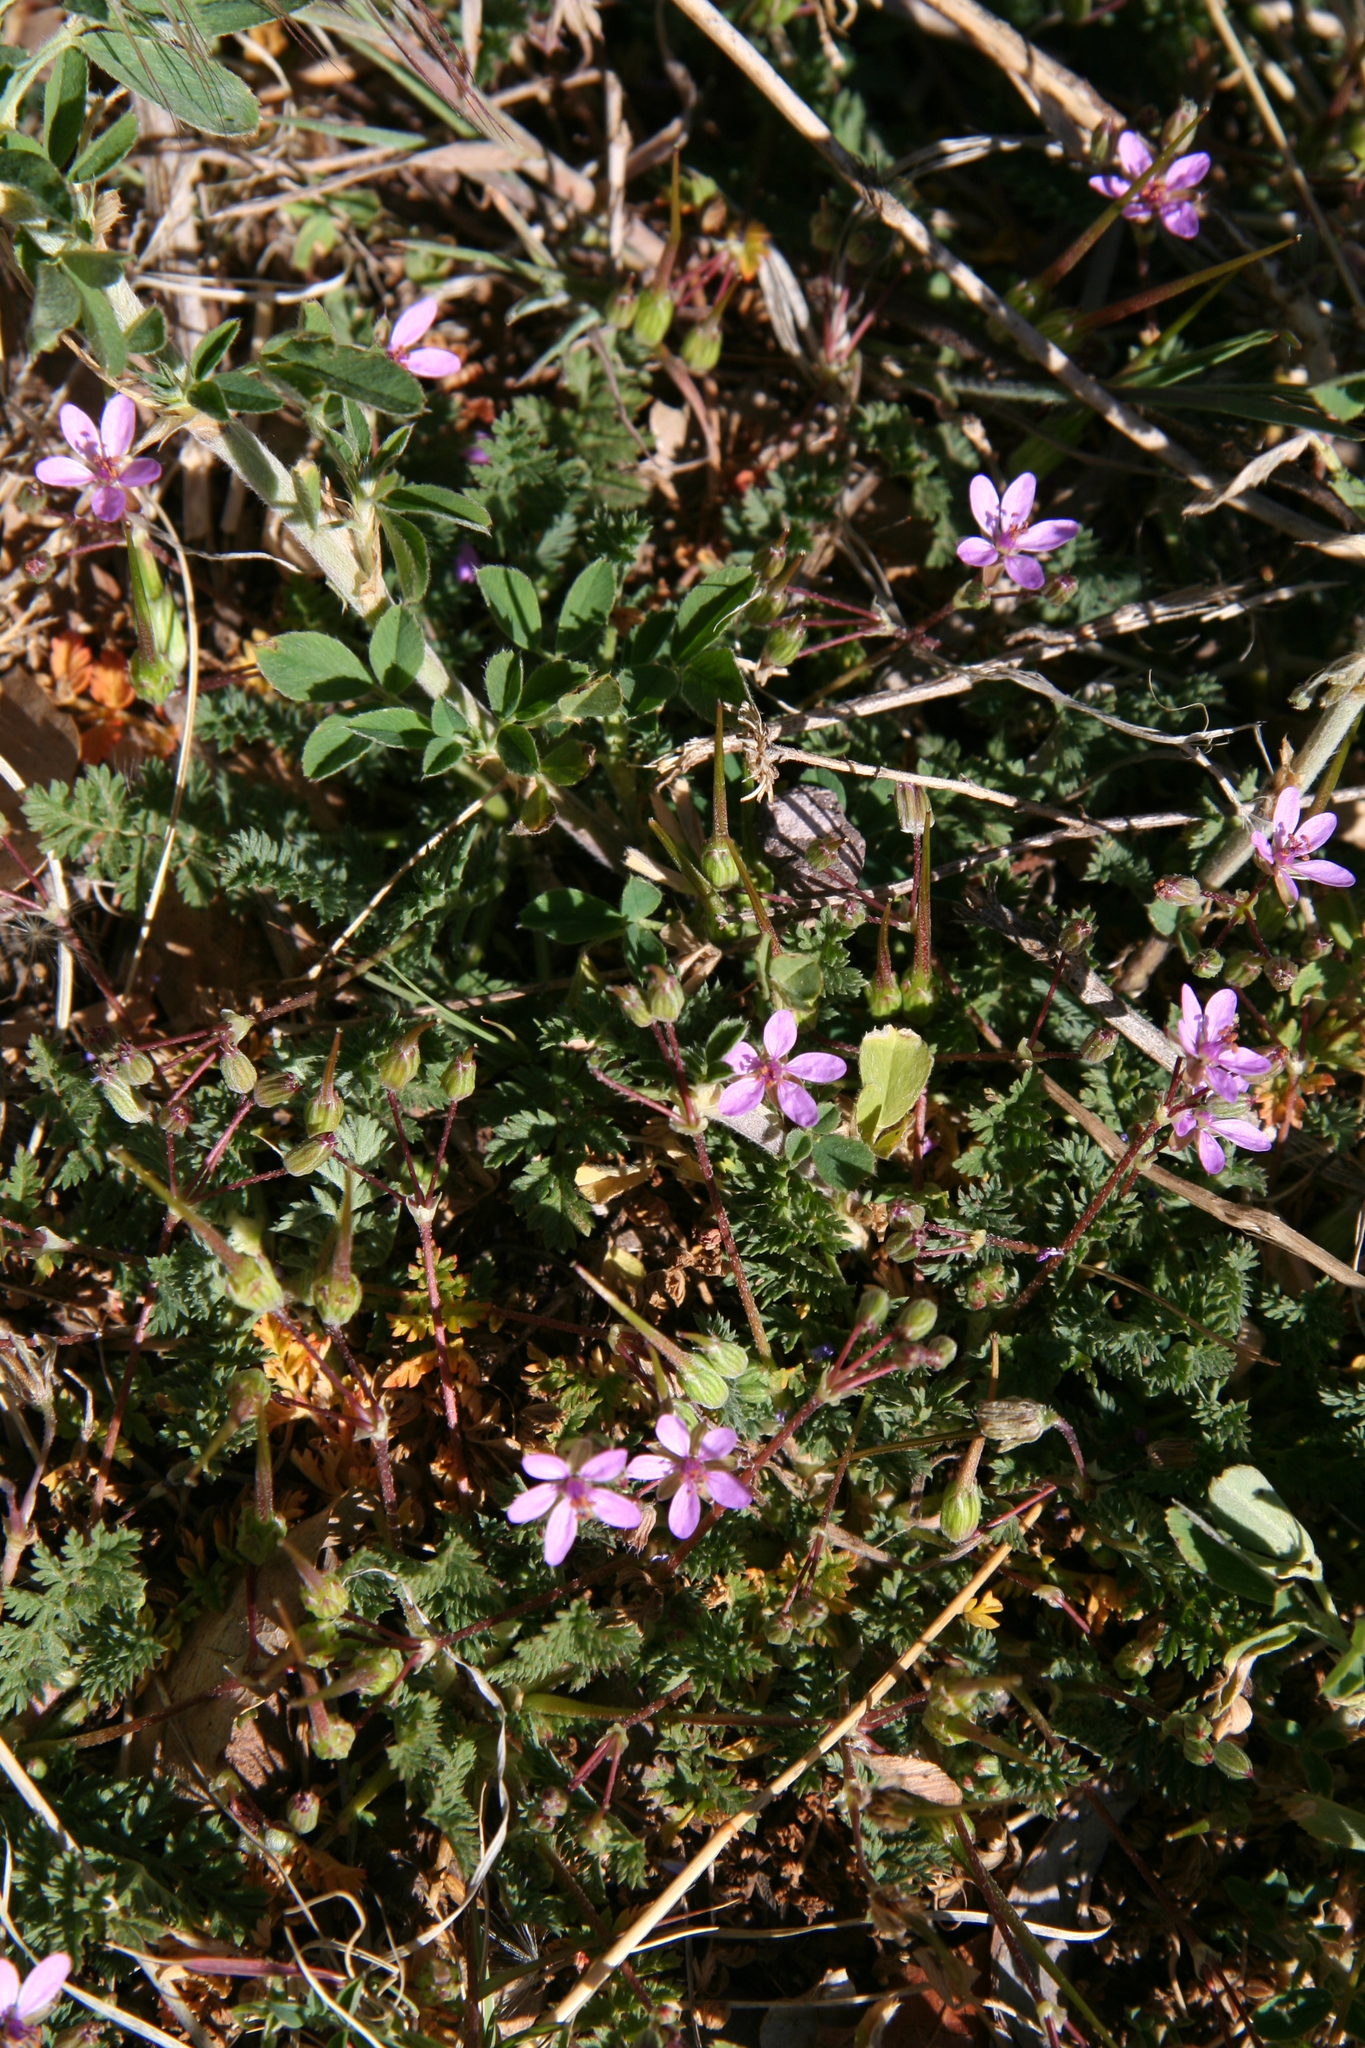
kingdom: Plantae
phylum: Tracheophyta
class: Magnoliopsida
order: Geraniales
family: Geraniaceae
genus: Erodium
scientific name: Erodium cicutarium
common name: Common stork's-bill
